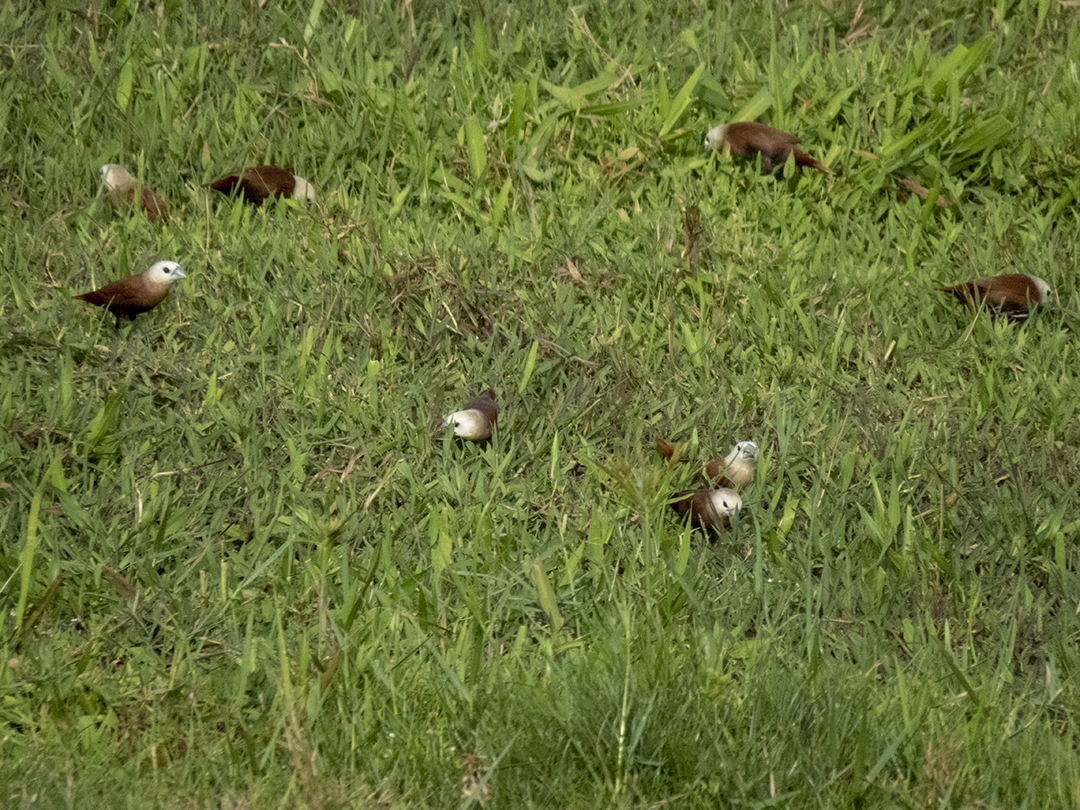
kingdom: Animalia
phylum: Chordata
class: Aves
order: Passeriformes
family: Estrildidae
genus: Lonchura
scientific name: Lonchura maja
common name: White-headed munia
